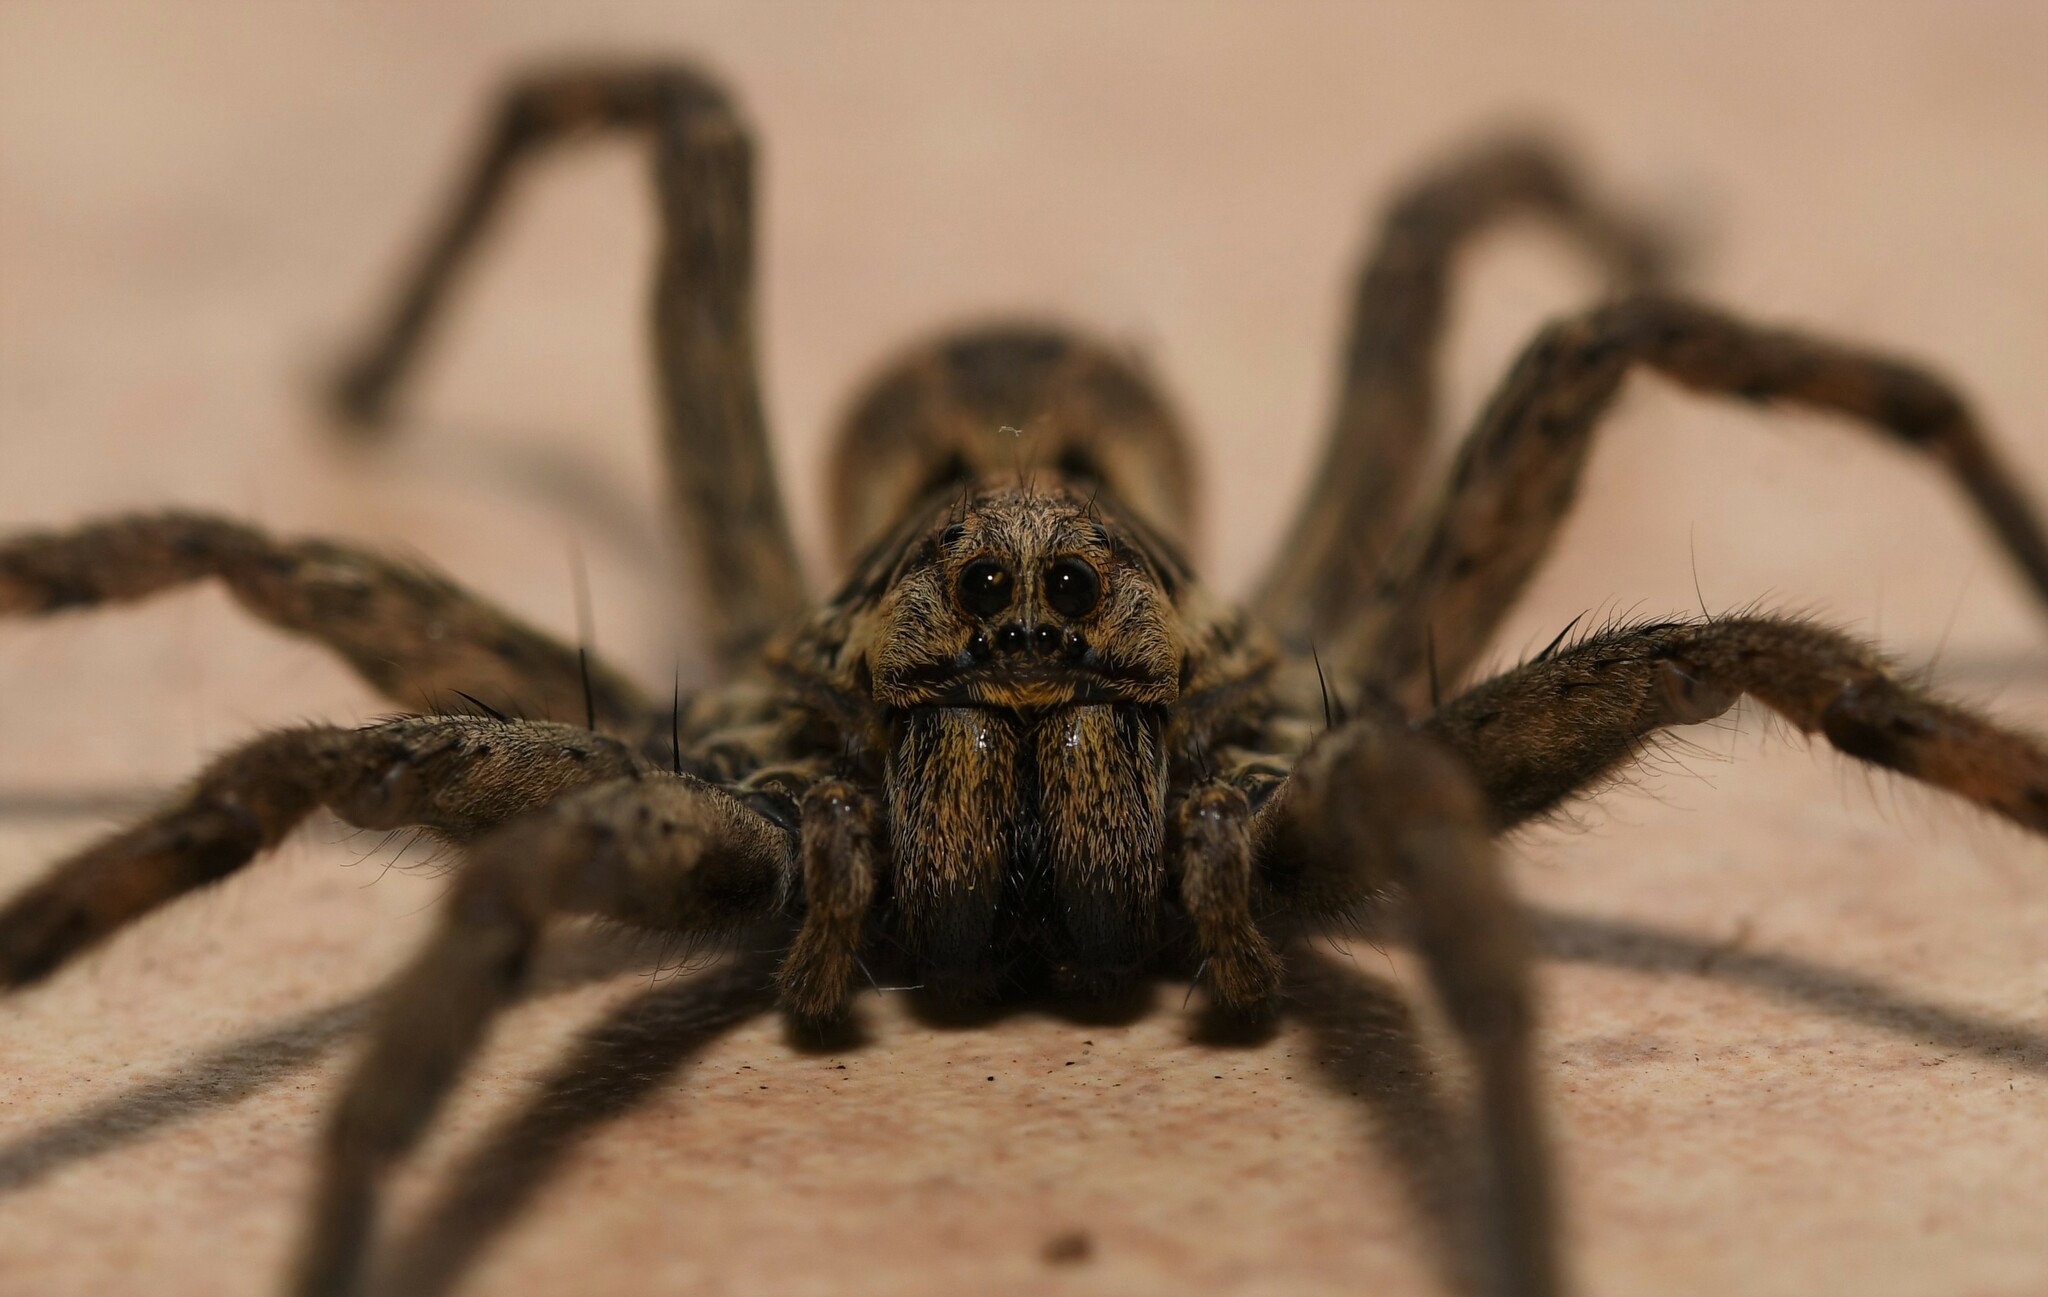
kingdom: Animalia
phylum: Arthropoda
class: Arachnida
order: Araneae
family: Lycosidae
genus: Hogna
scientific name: Hogna radiata
